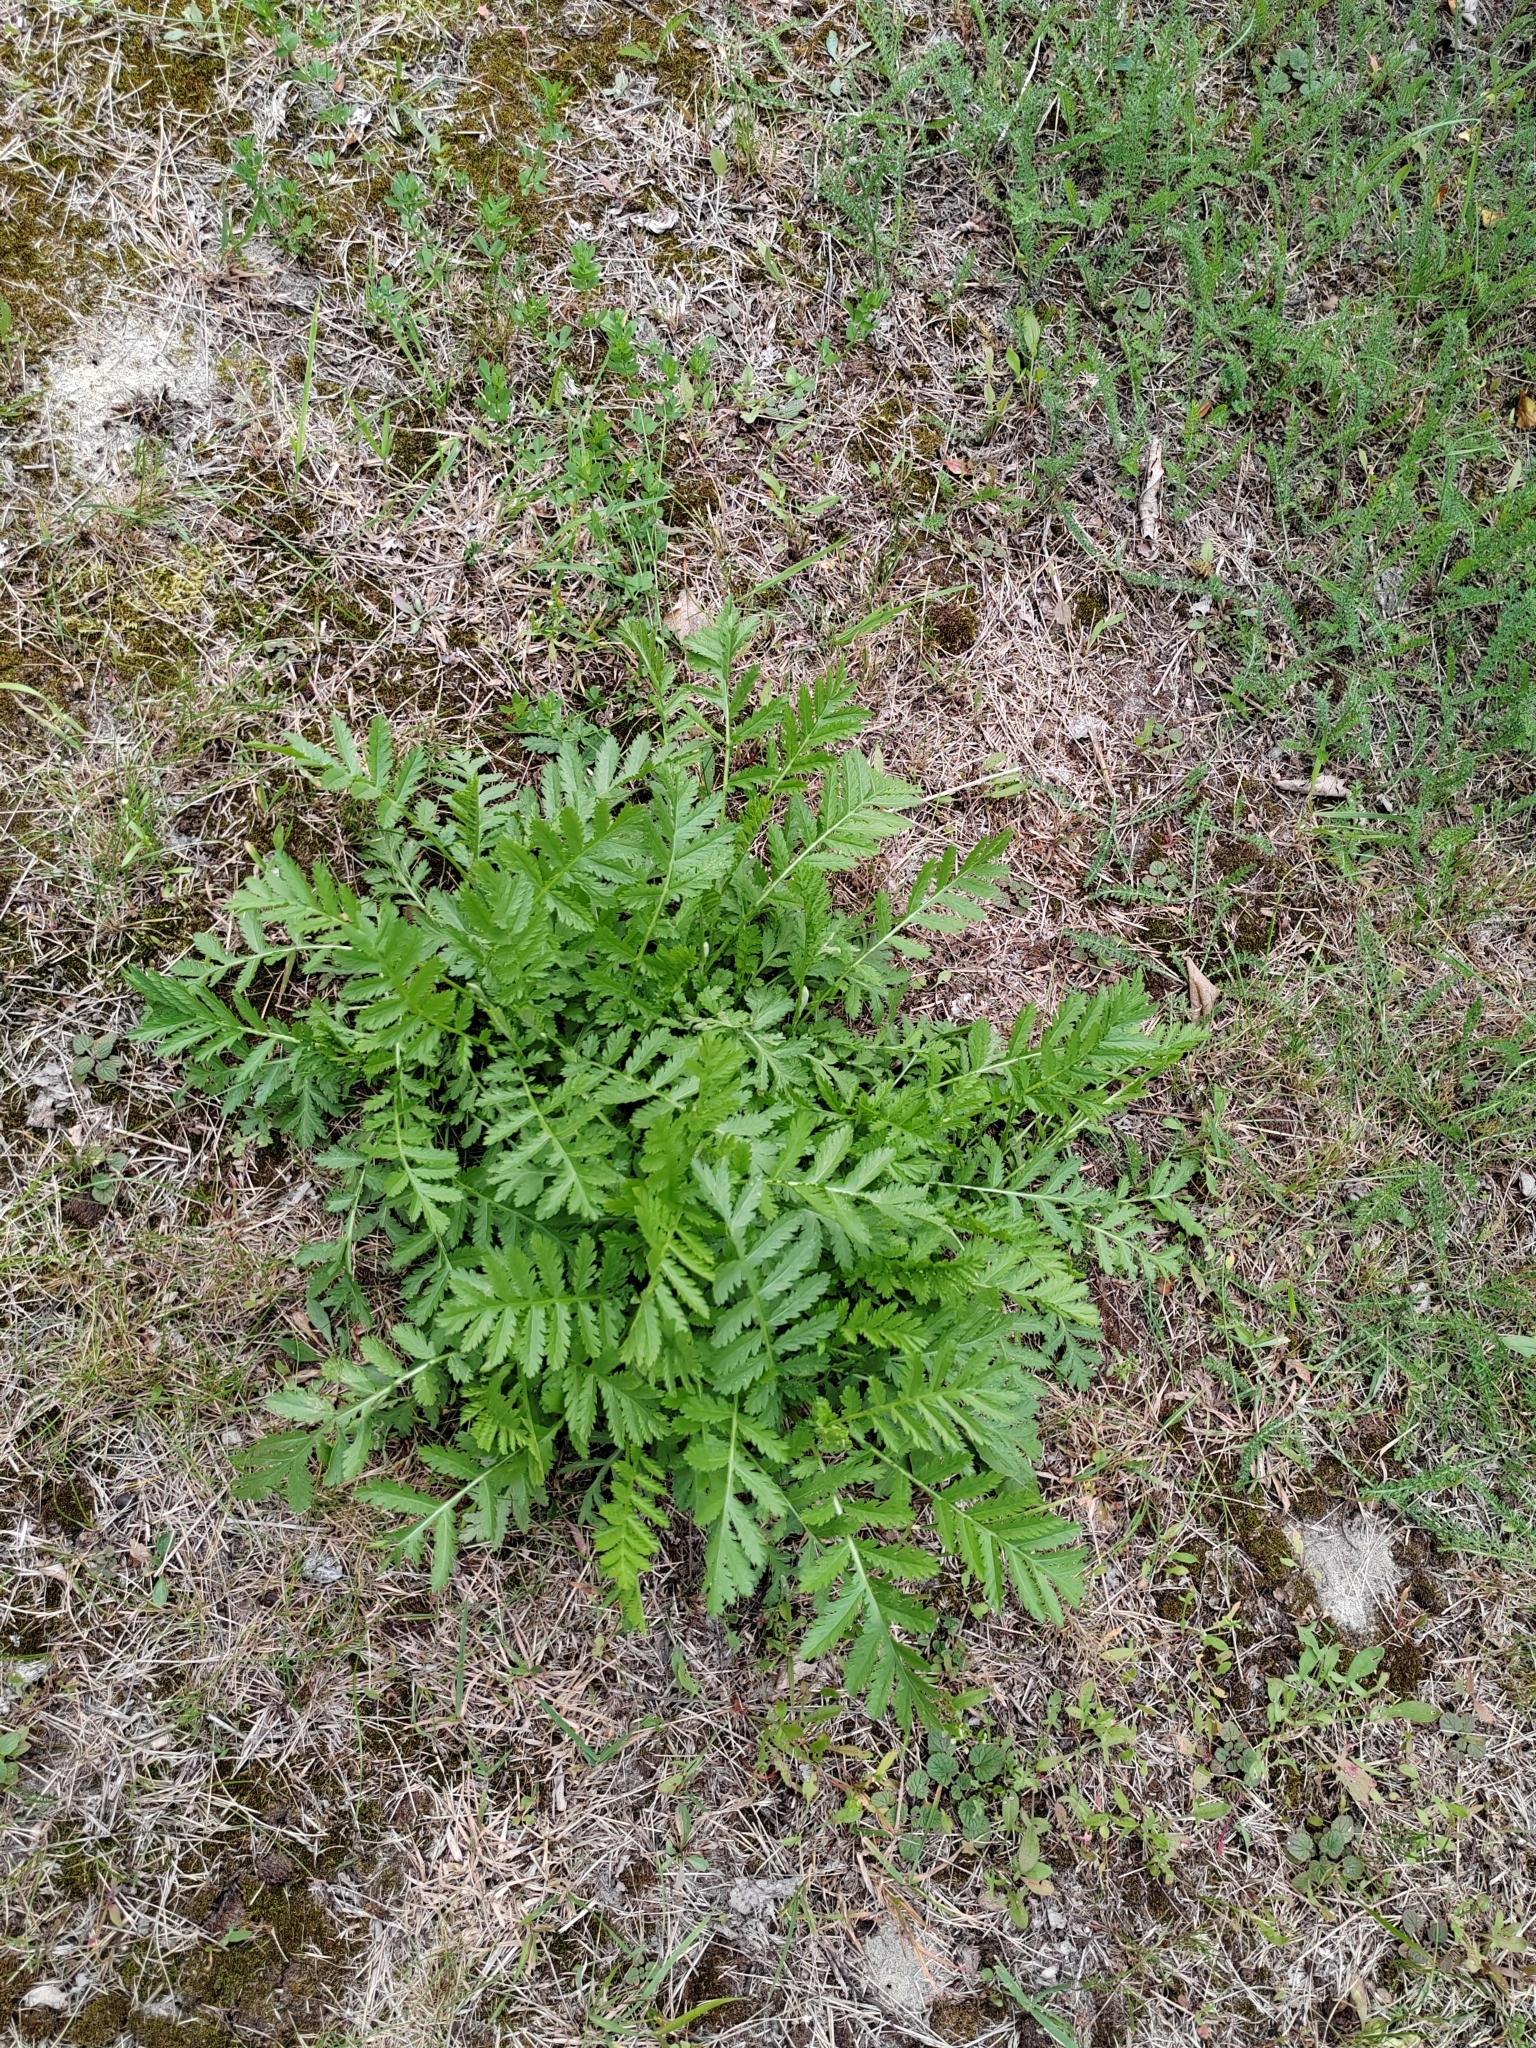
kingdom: Plantae
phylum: Tracheophyta
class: Magnoliopsida
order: Asterales
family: Asteraceae
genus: Tanacetum
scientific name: Tanacetum vulgare
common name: Common tansy
